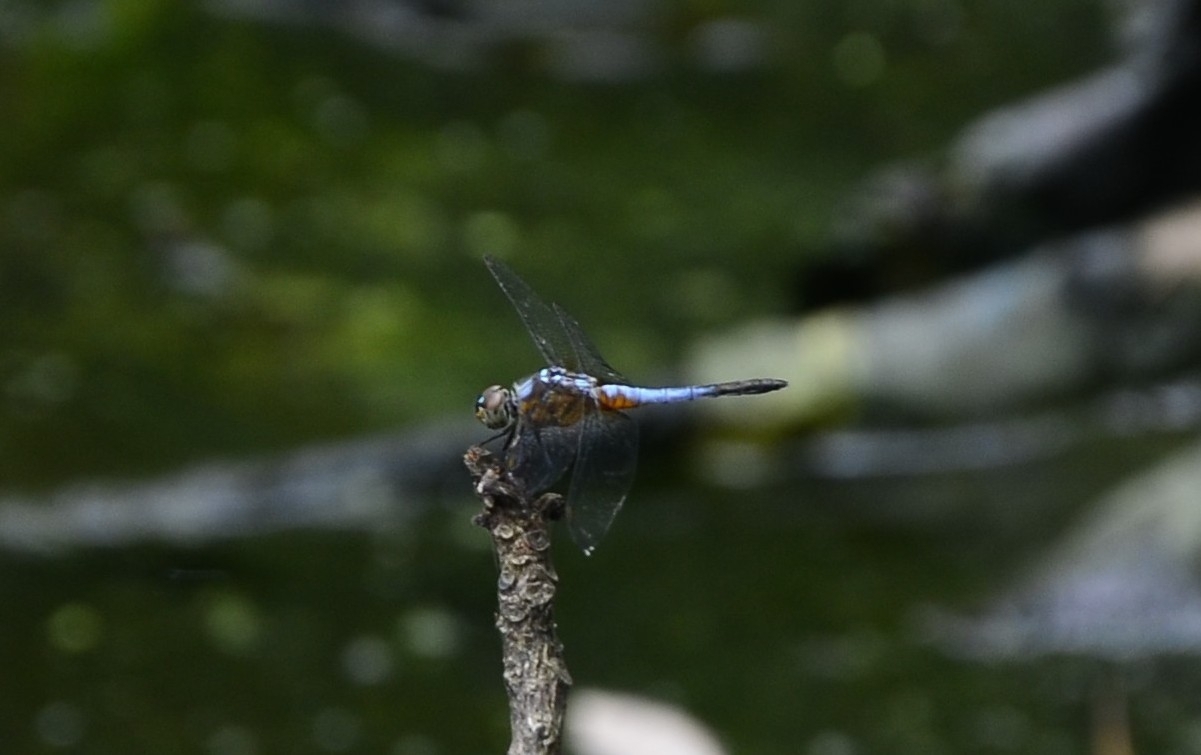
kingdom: Animalia
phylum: Arthropoda
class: Insecta
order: Odonata
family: Libellulidae
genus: Brachydiplax
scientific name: Brachydiplax chalybea
